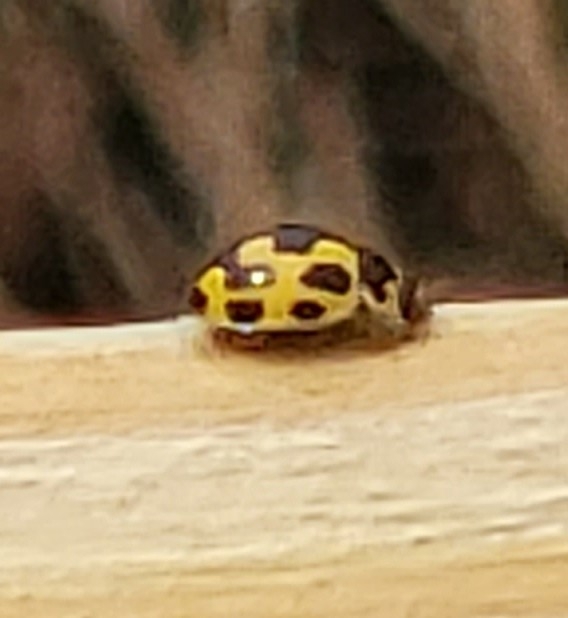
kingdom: Animalia
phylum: Arthropoda
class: Insecta
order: Coleoptera
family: Coccinellidae
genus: Propylaea
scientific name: Propylaea quatuordecimpunctata
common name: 14-spotted ladybird beetle
